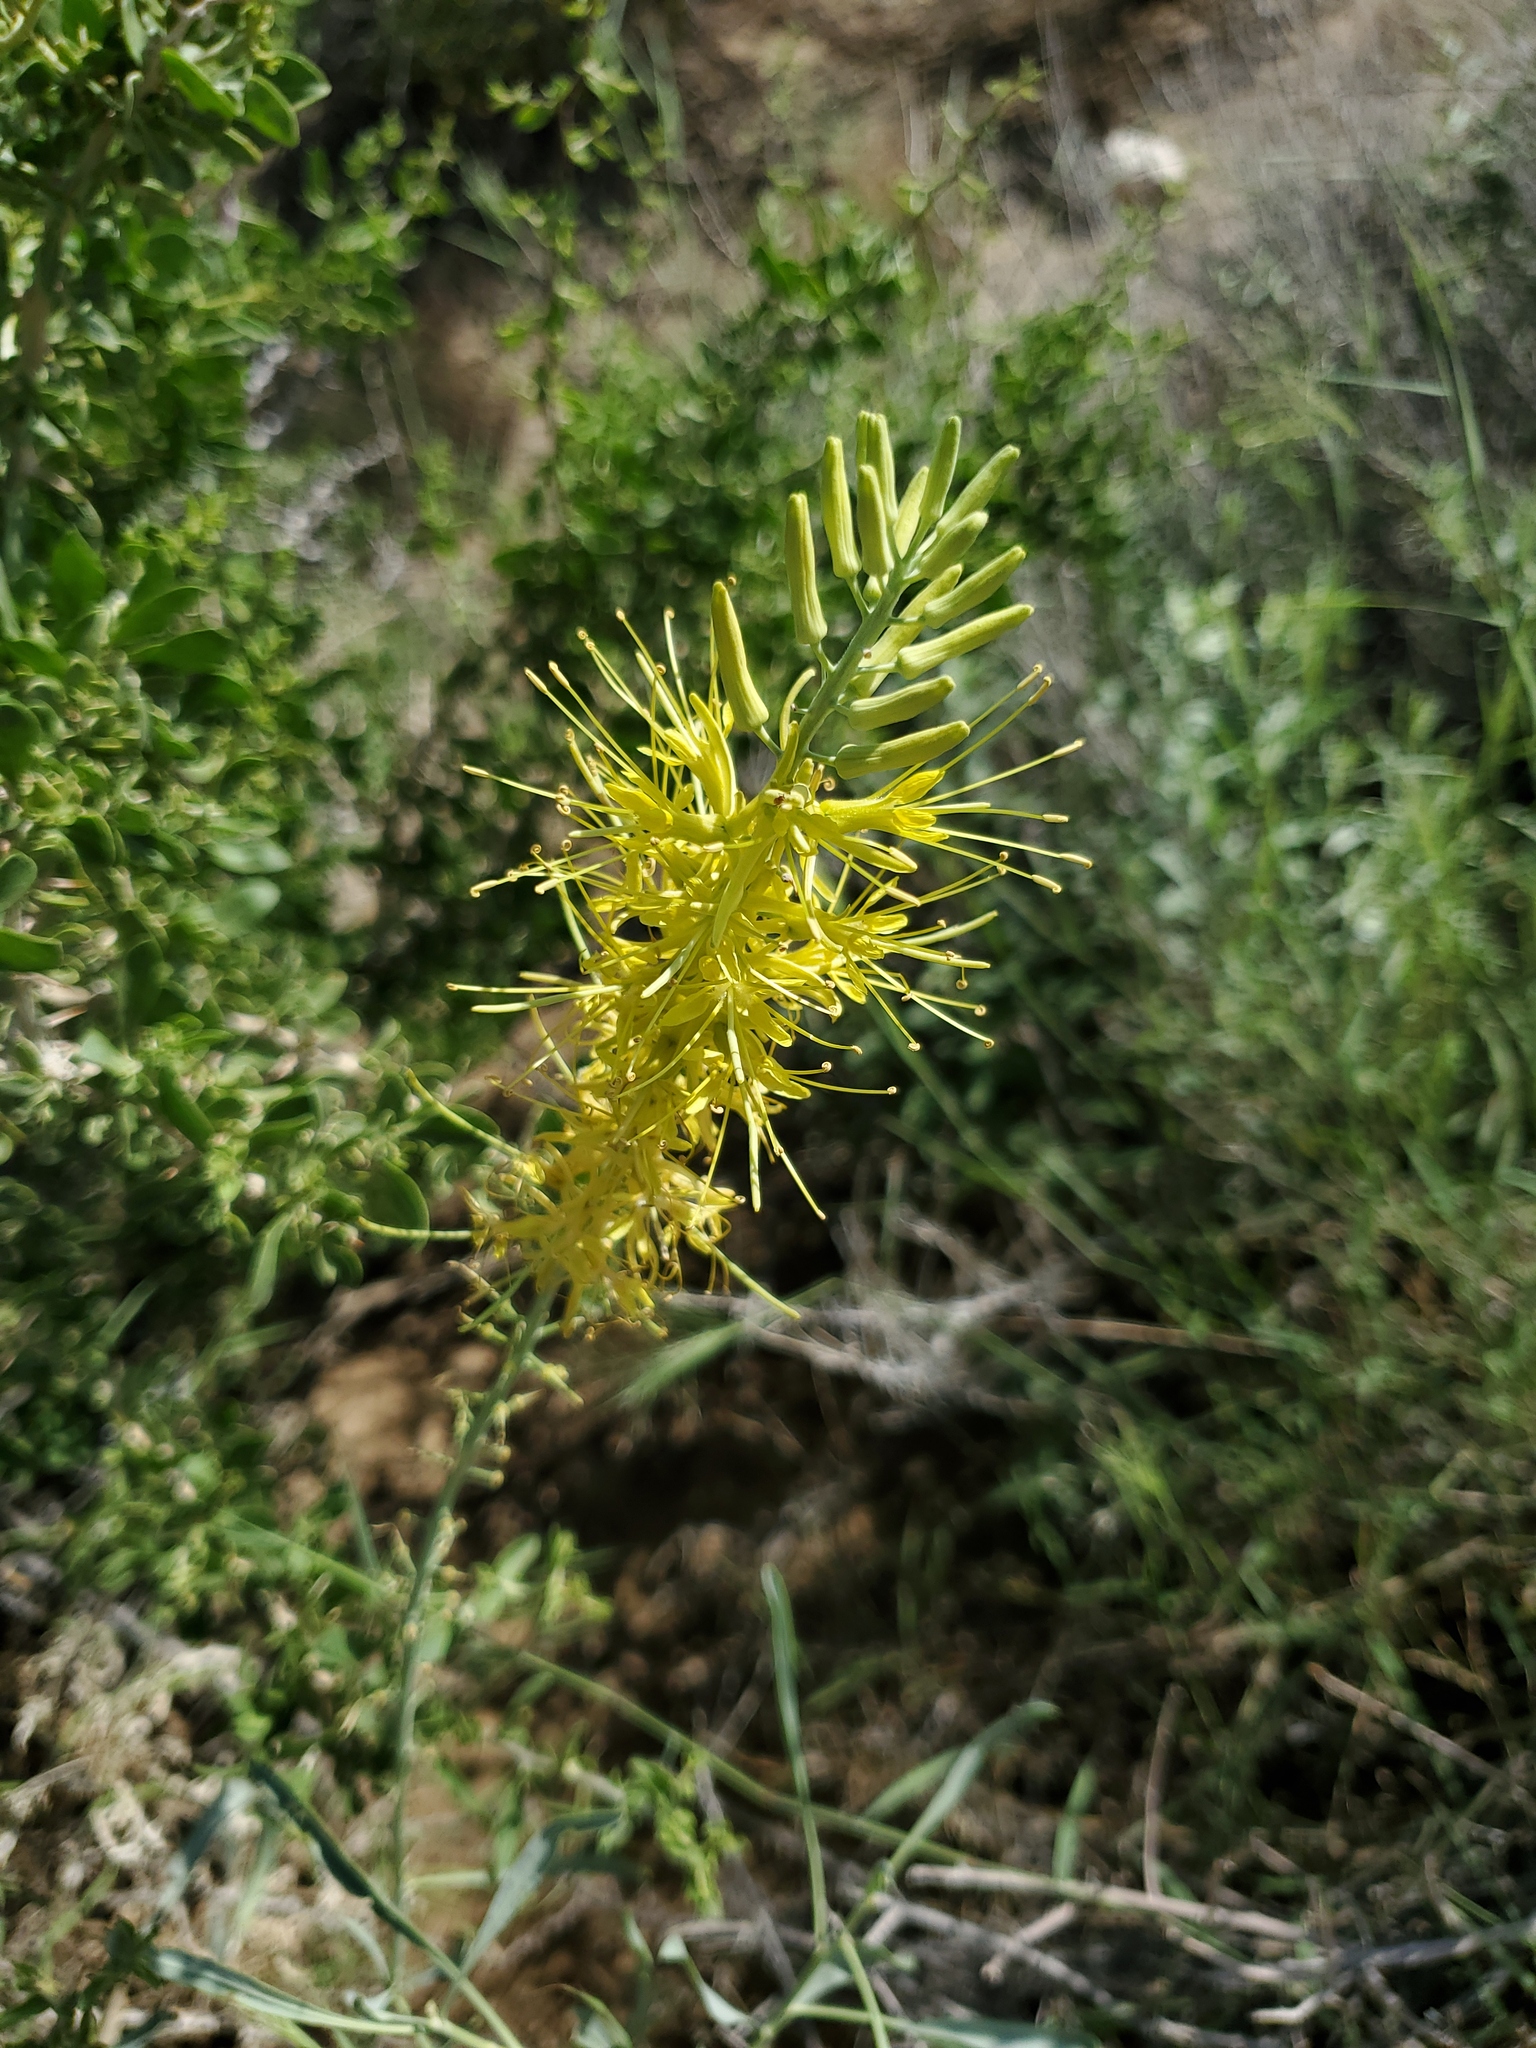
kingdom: Plantae
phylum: Tracheophyta
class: Magnoliopsida
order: Brassicales
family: Brassicaceae
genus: Stanleya
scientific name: Stanleya pinnata
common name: Prince's-plume
